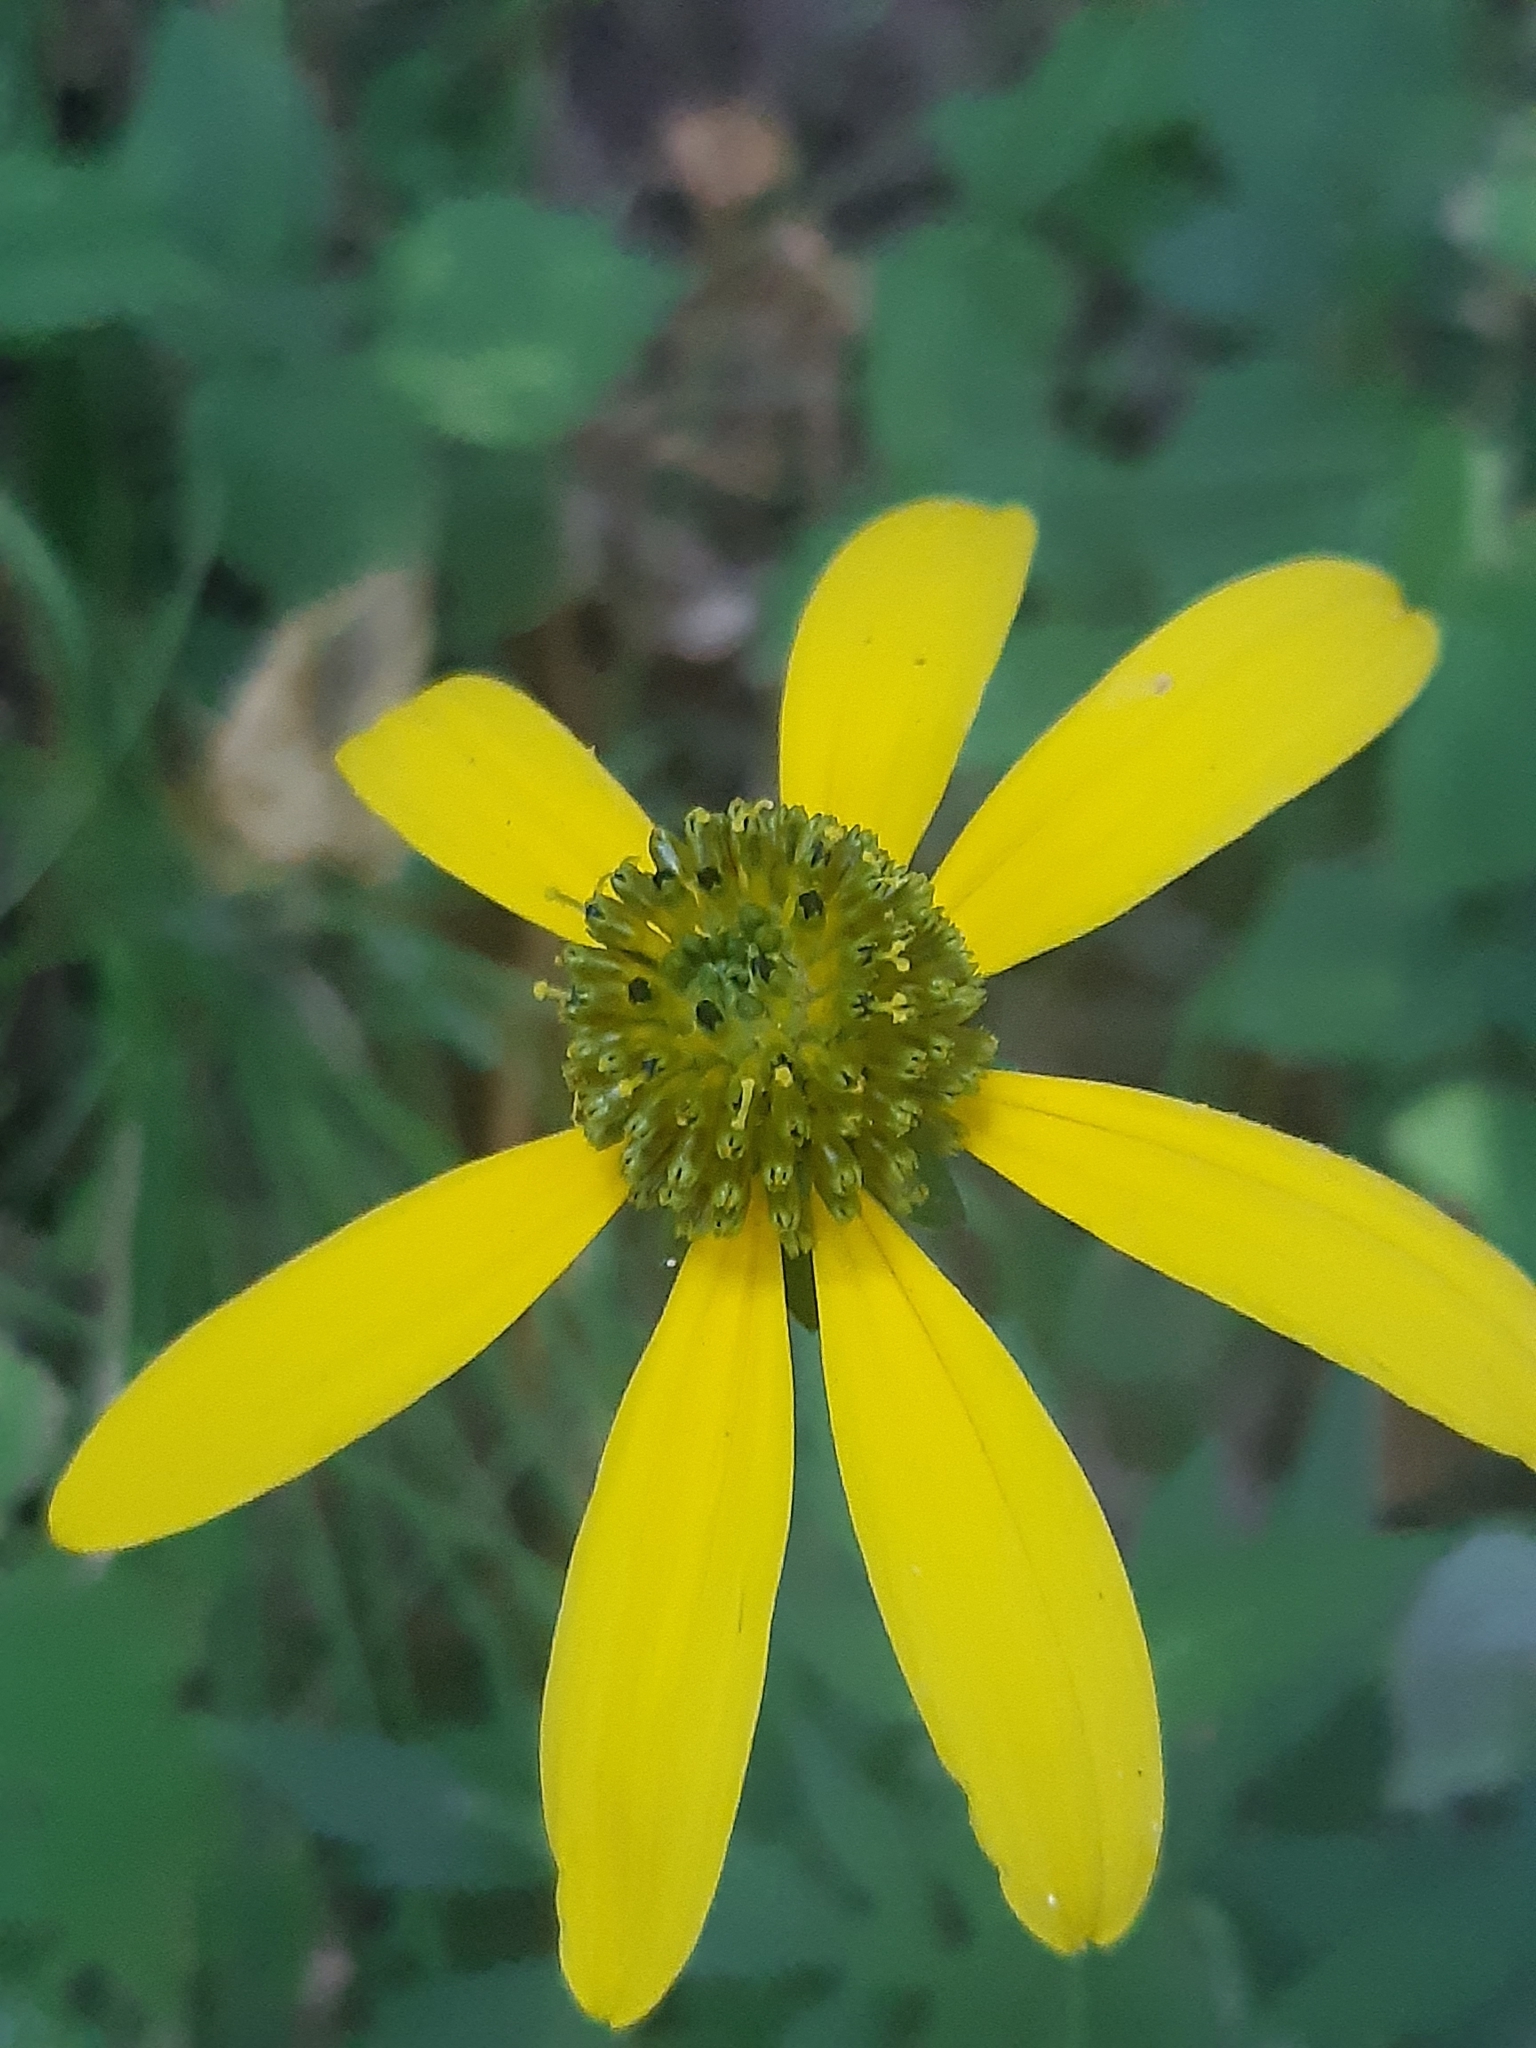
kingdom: Plantae
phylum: Tracheophyta
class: Magnoliopsida
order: Asterales
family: Asteraceae
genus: Rudbeckia
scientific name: Rudbeckia laciniata
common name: Coneflower
